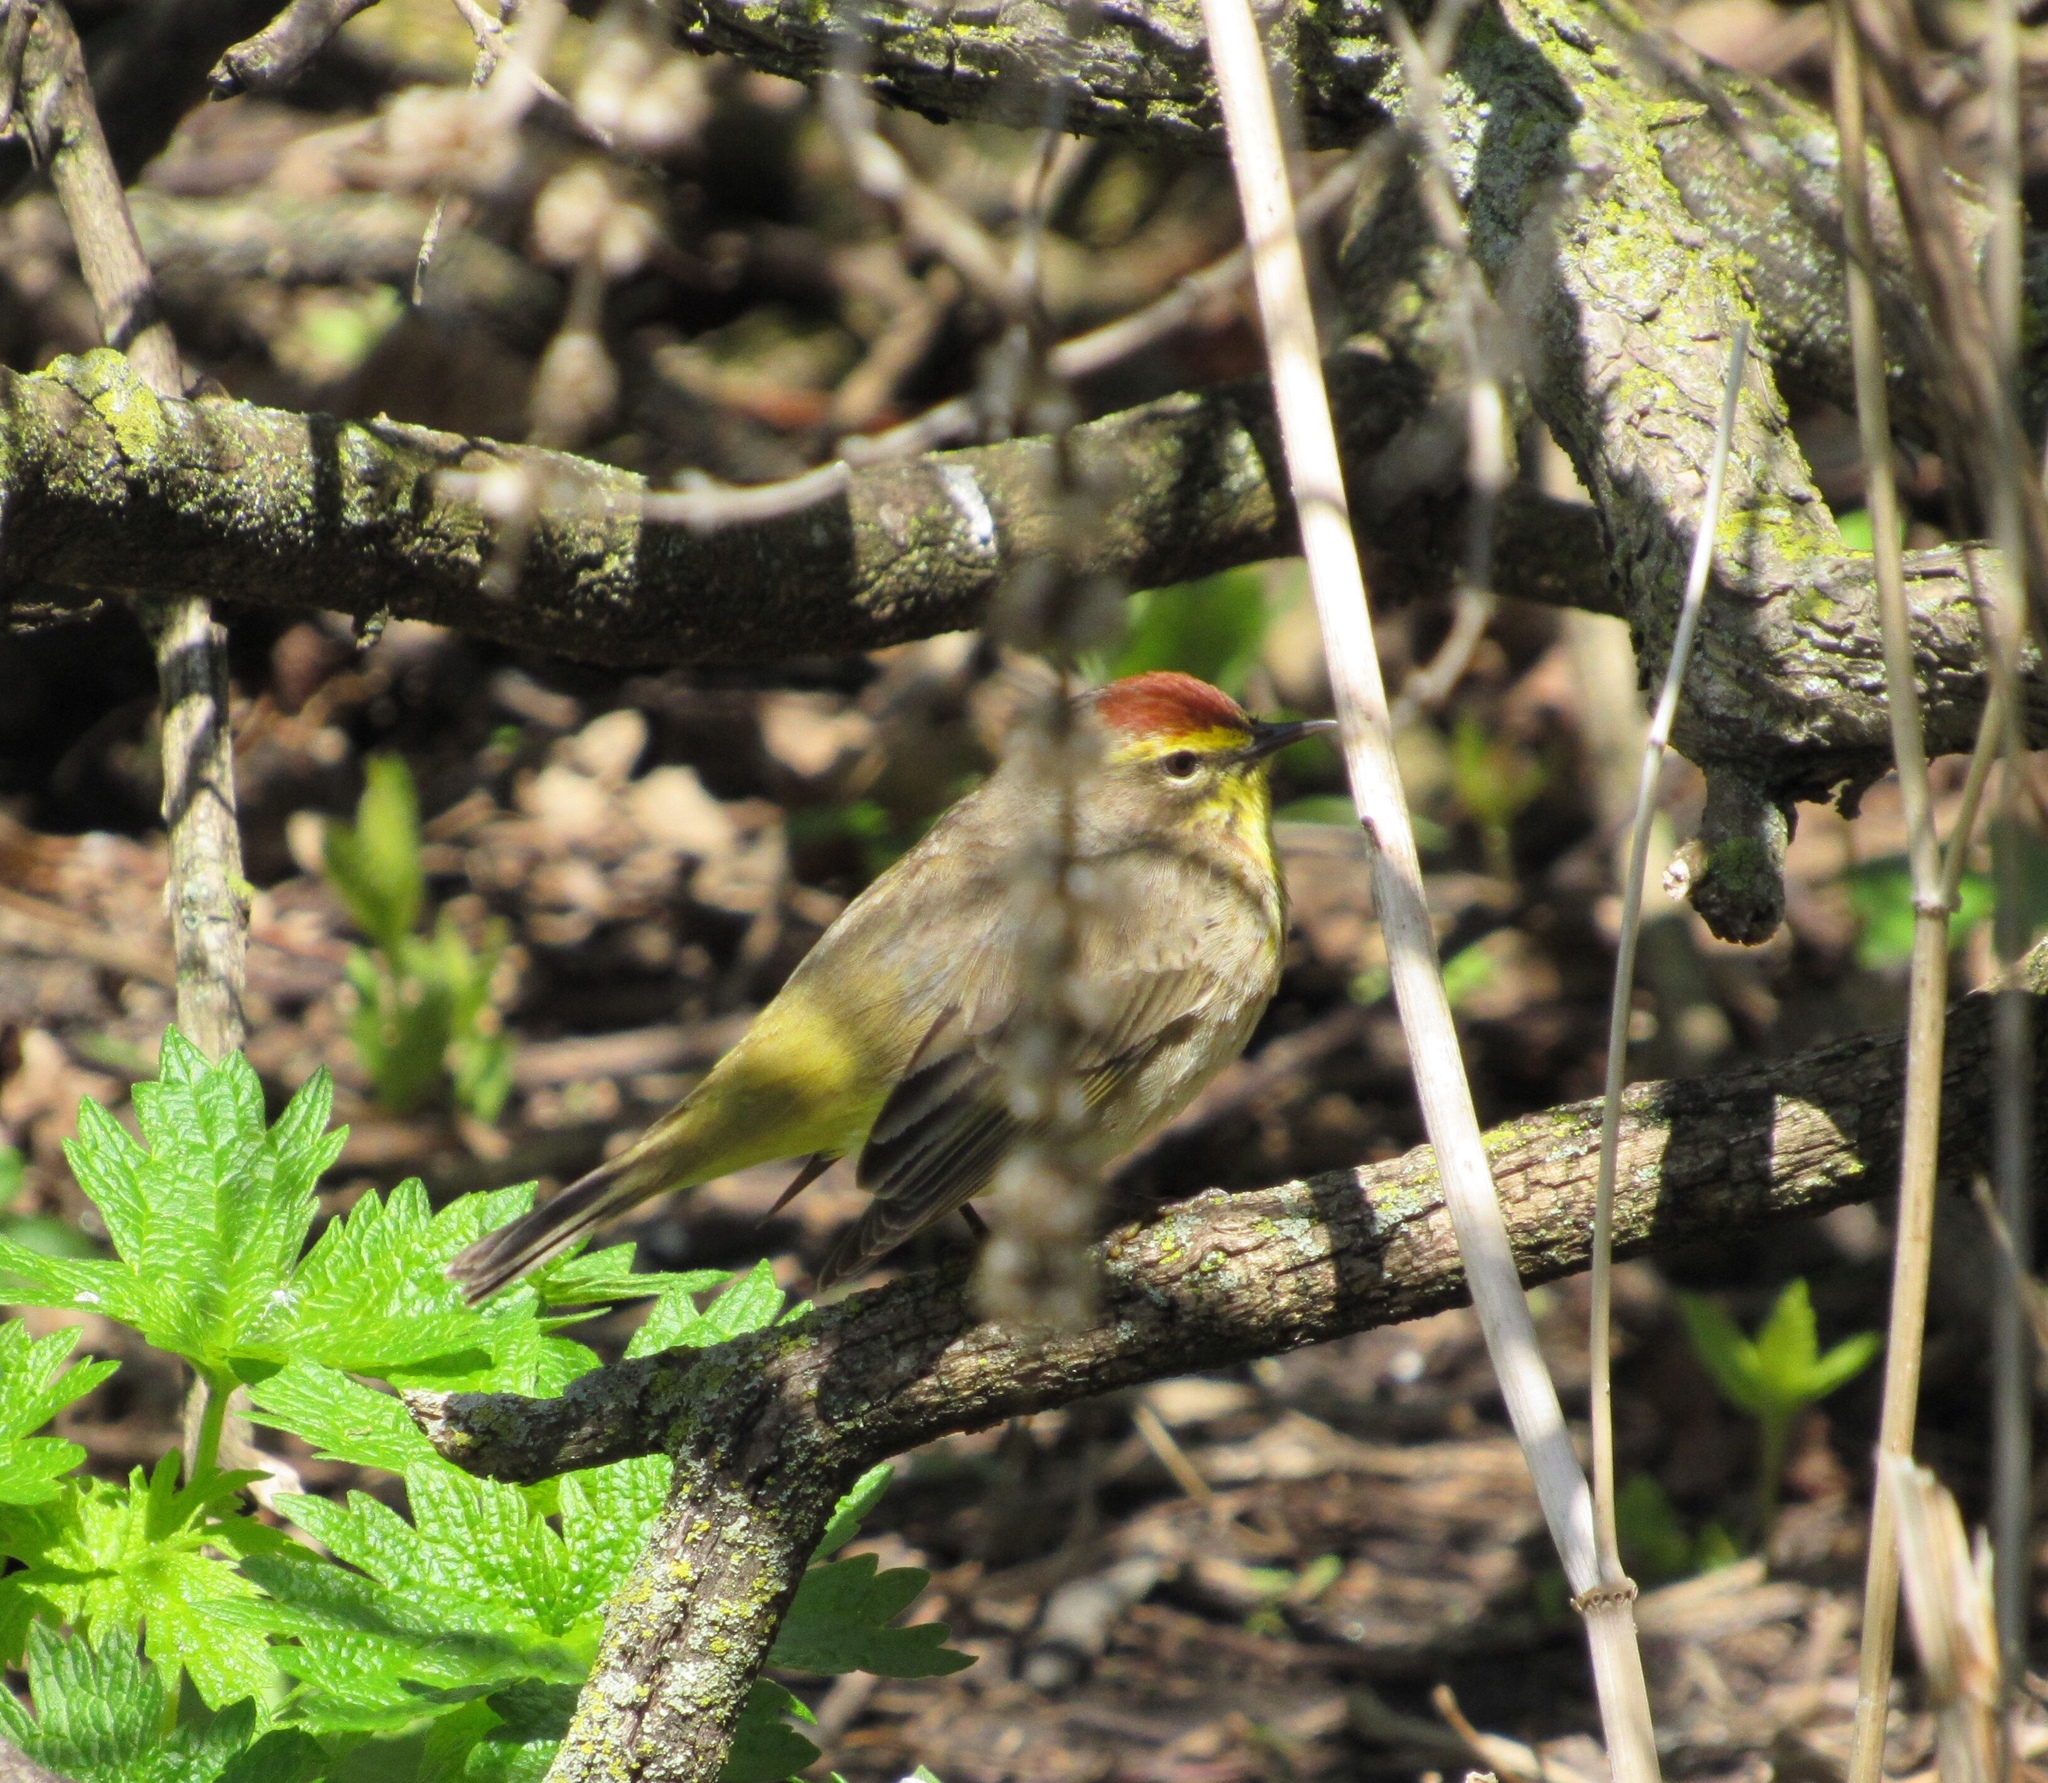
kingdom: Animalia
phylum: Chordata
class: Aves
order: Passeriformes
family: Parulidae
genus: Setophaga
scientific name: Setophaga palmarum
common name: Palm warbler
